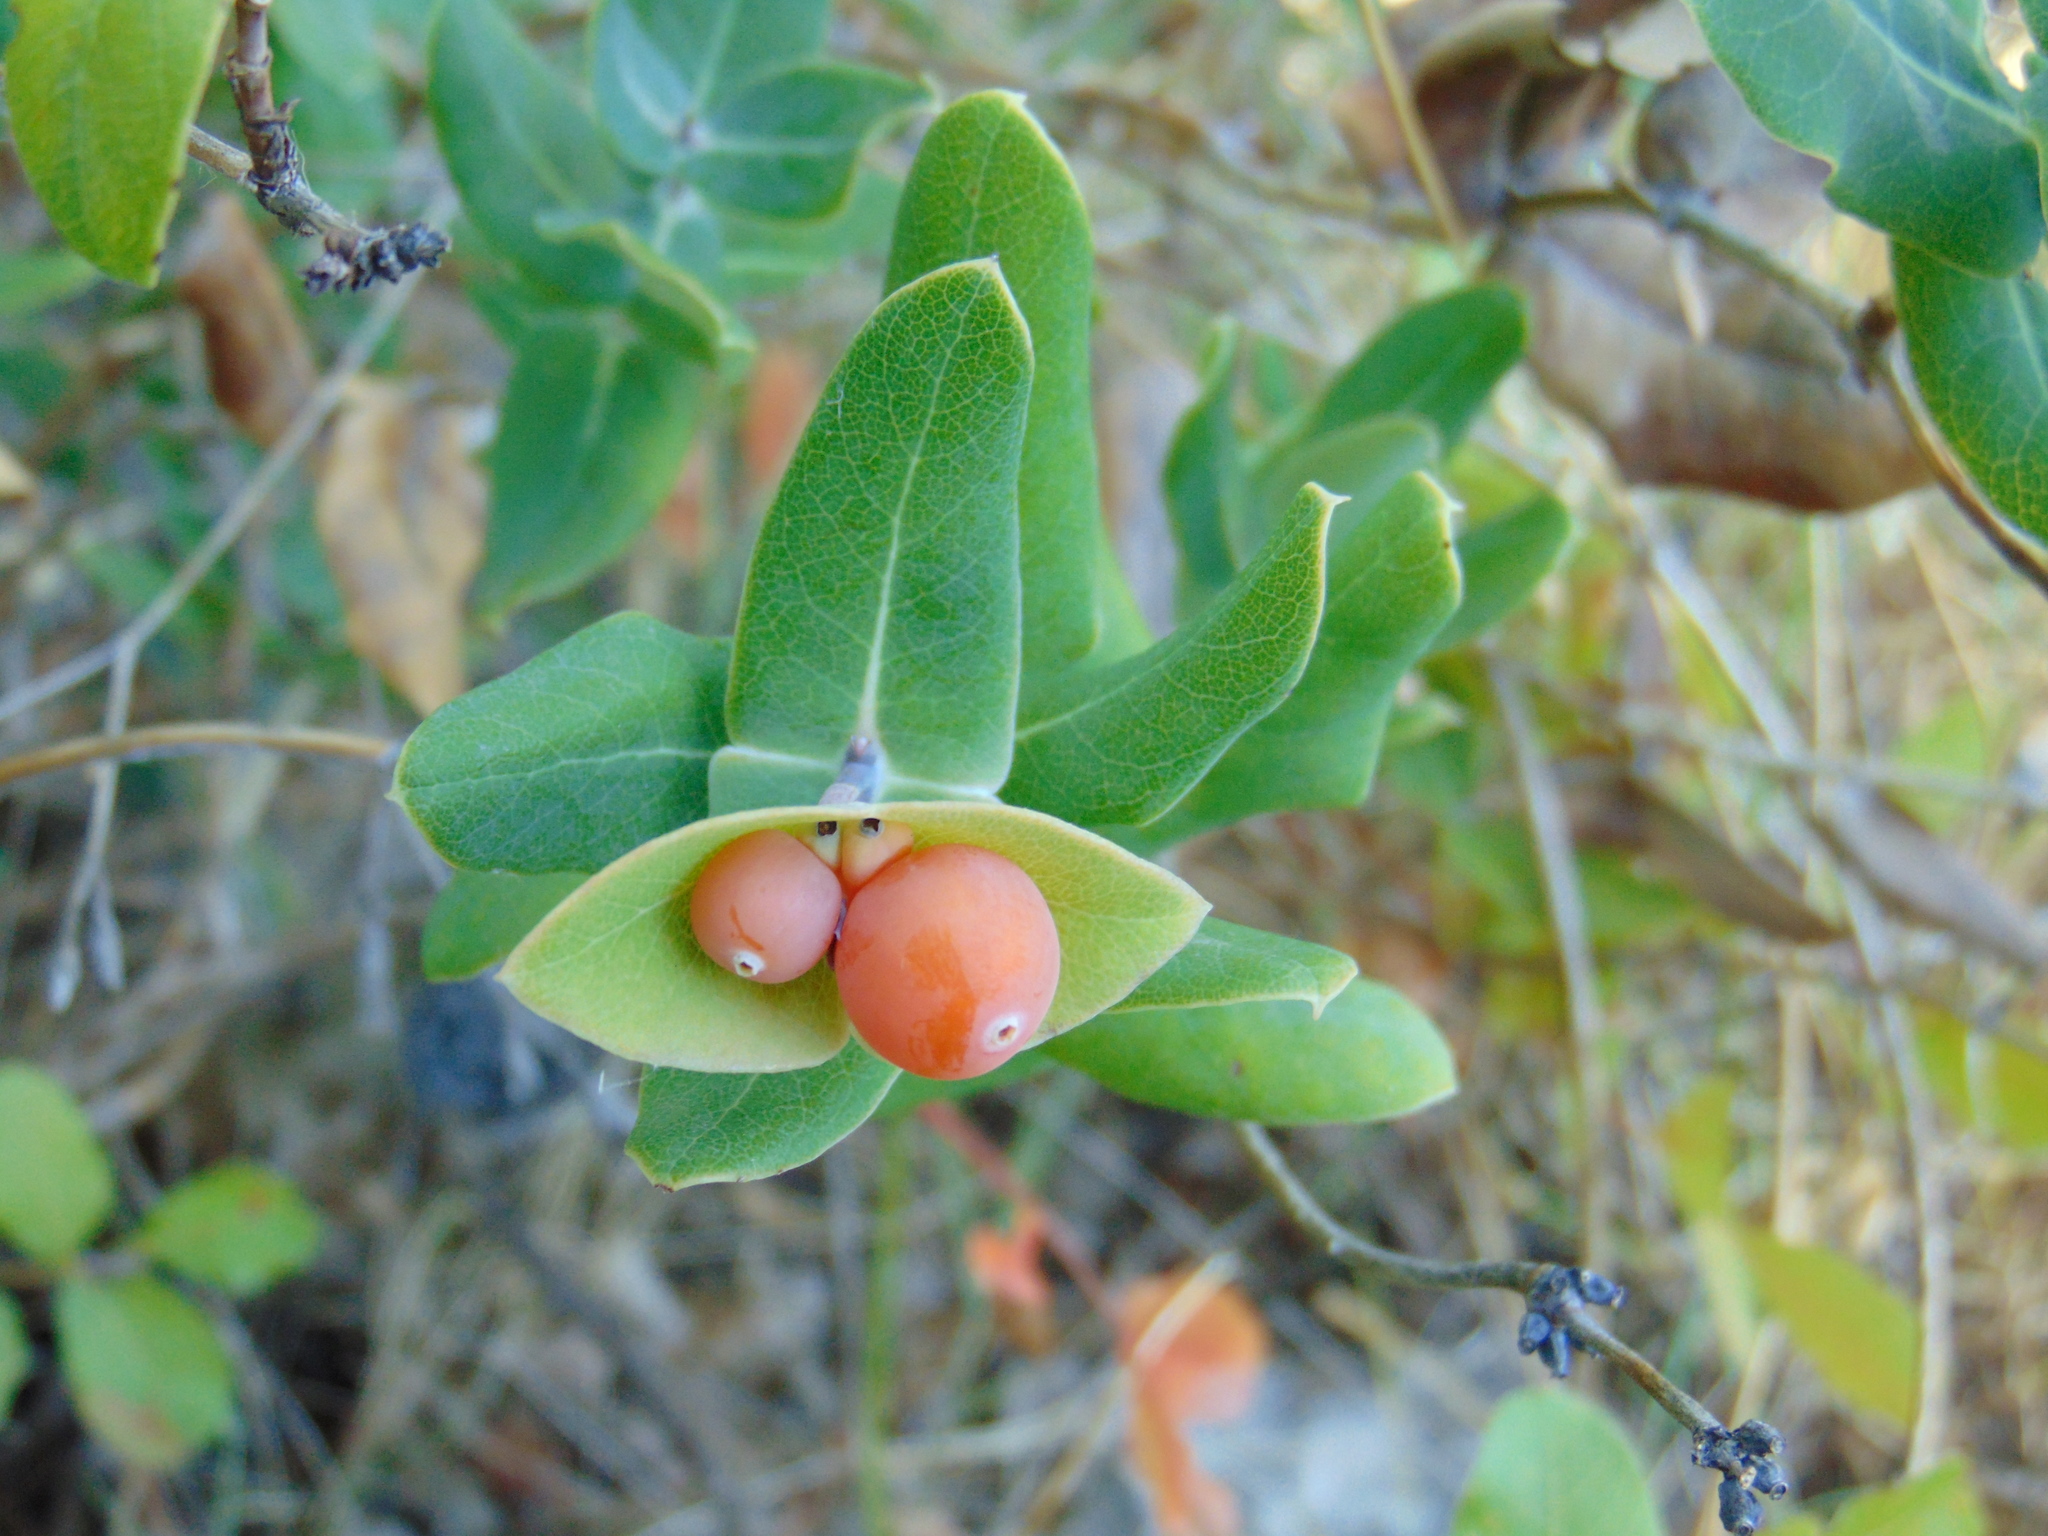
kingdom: Plantae
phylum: Tracheophyta
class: Magnoliopsida
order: Dipsacales
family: Caprifoliaceae
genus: Lonicera
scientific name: Lonicera implexa
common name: Minorca honeysuckle
